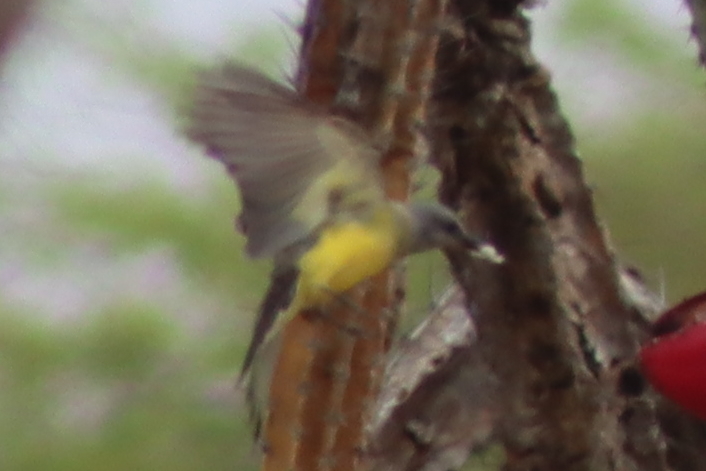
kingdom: Animalia
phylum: Chordata
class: Aves
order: Passeriformes
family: Tyrannidae
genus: Tyrannus
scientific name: Tyrannus melancholicus
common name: Tropical kingbird
